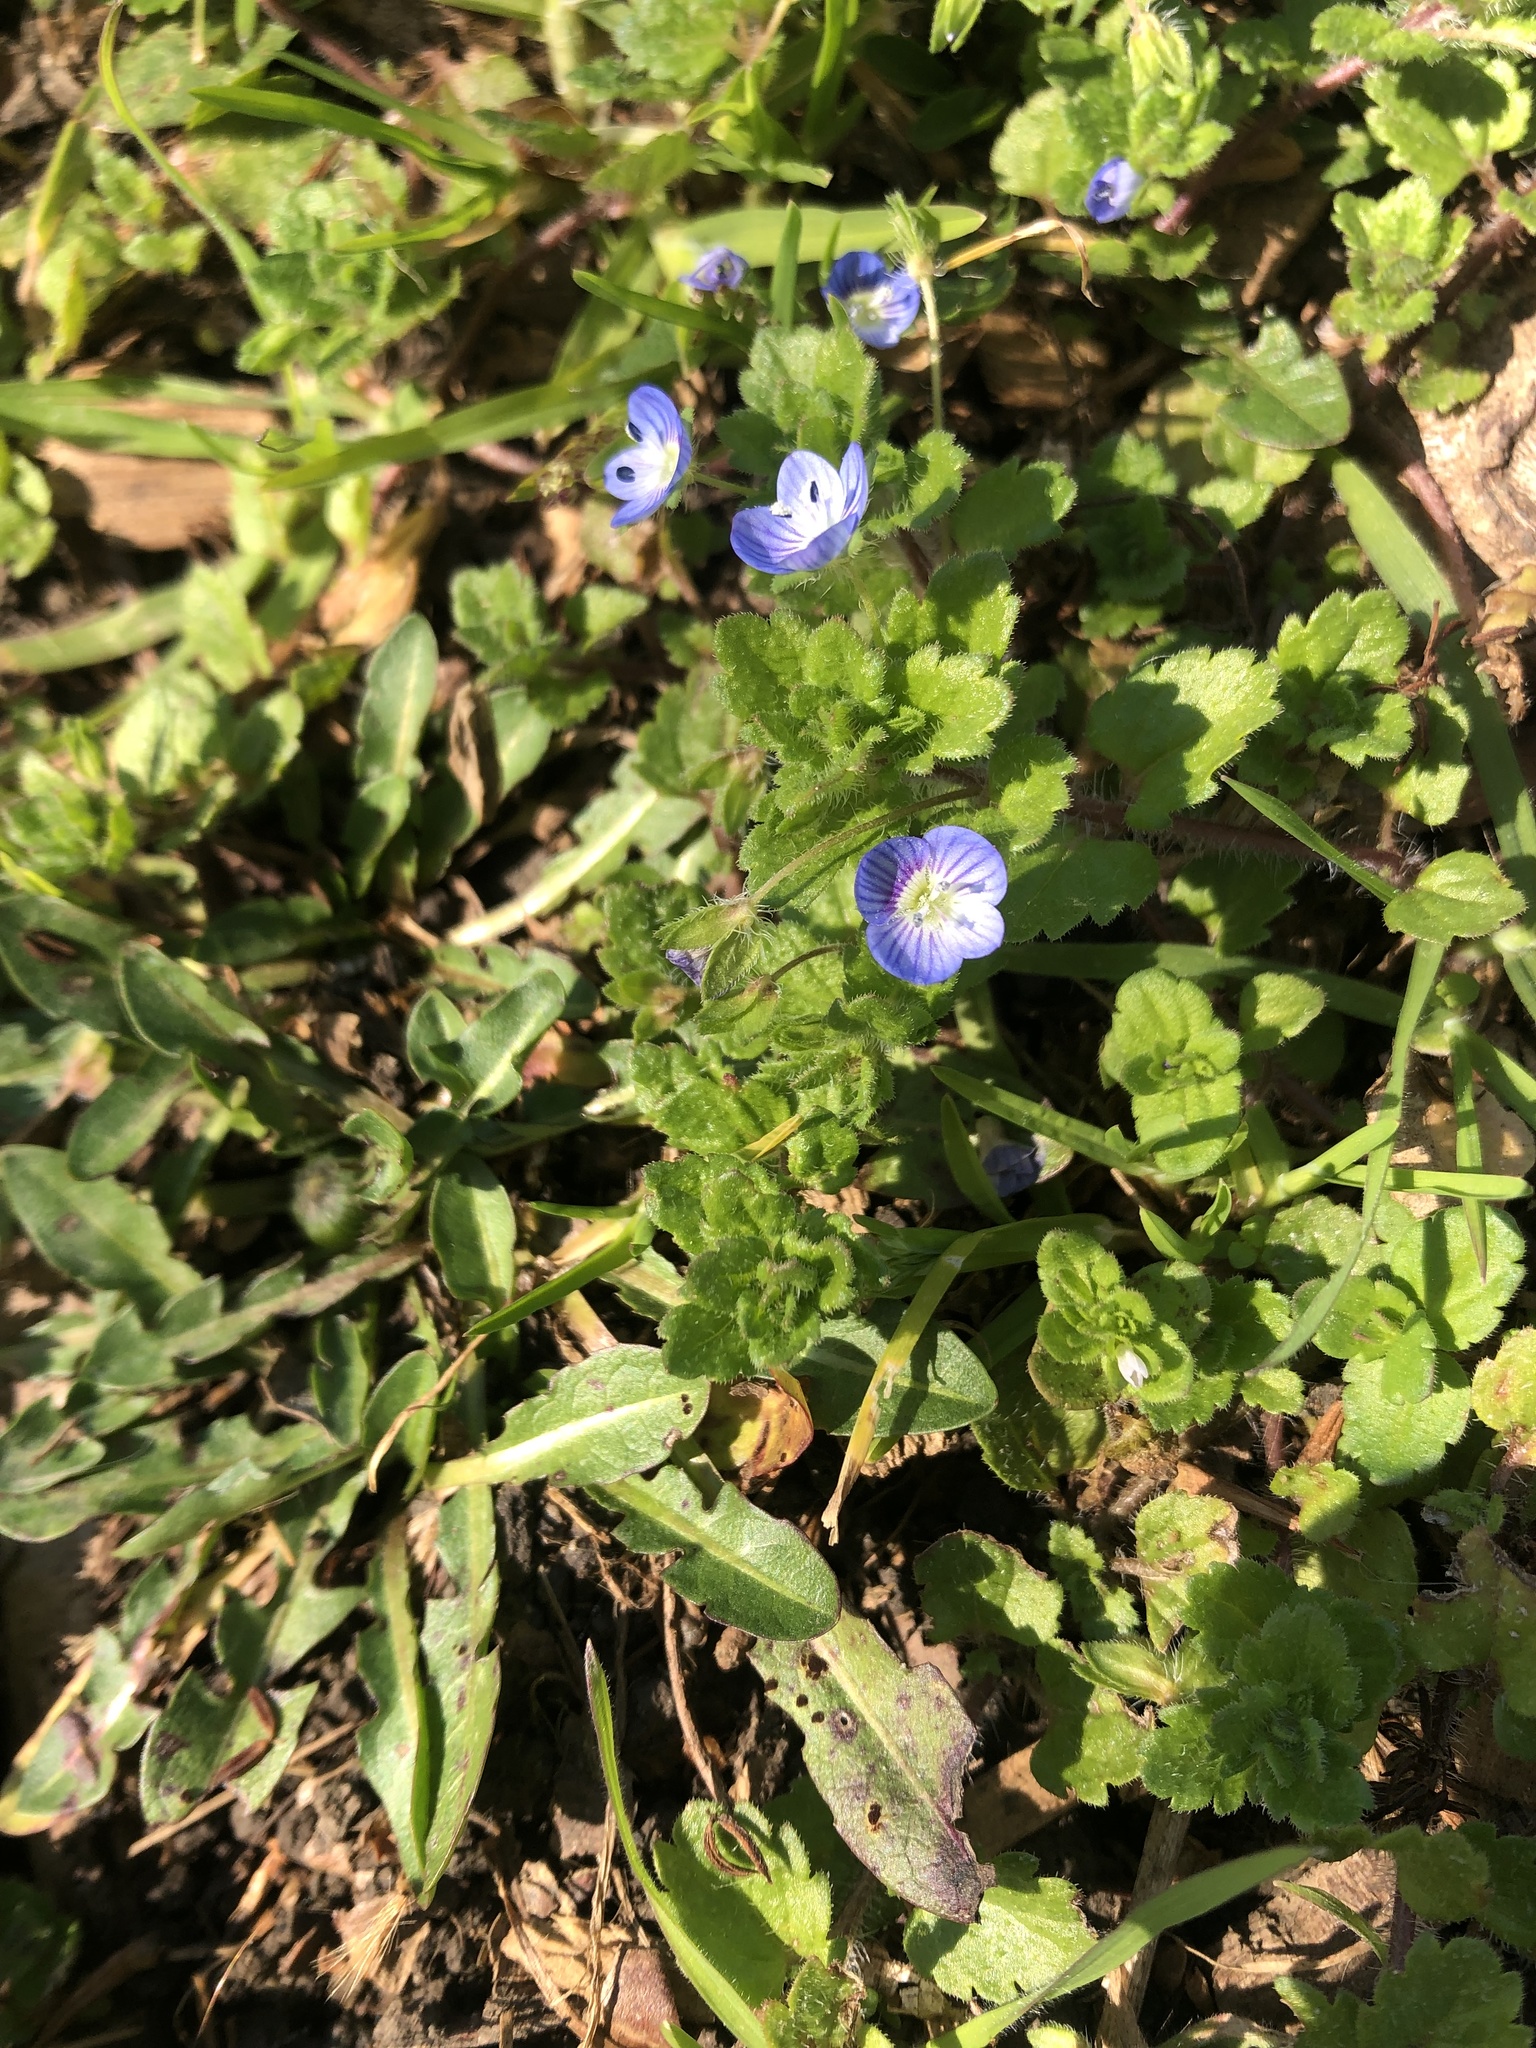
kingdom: Plantae
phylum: Tracheophyta
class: Magnoliopsida
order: Lamiales
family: Plantaginaceae
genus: Veronica
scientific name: Veronica persica
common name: Common field-speedwell
